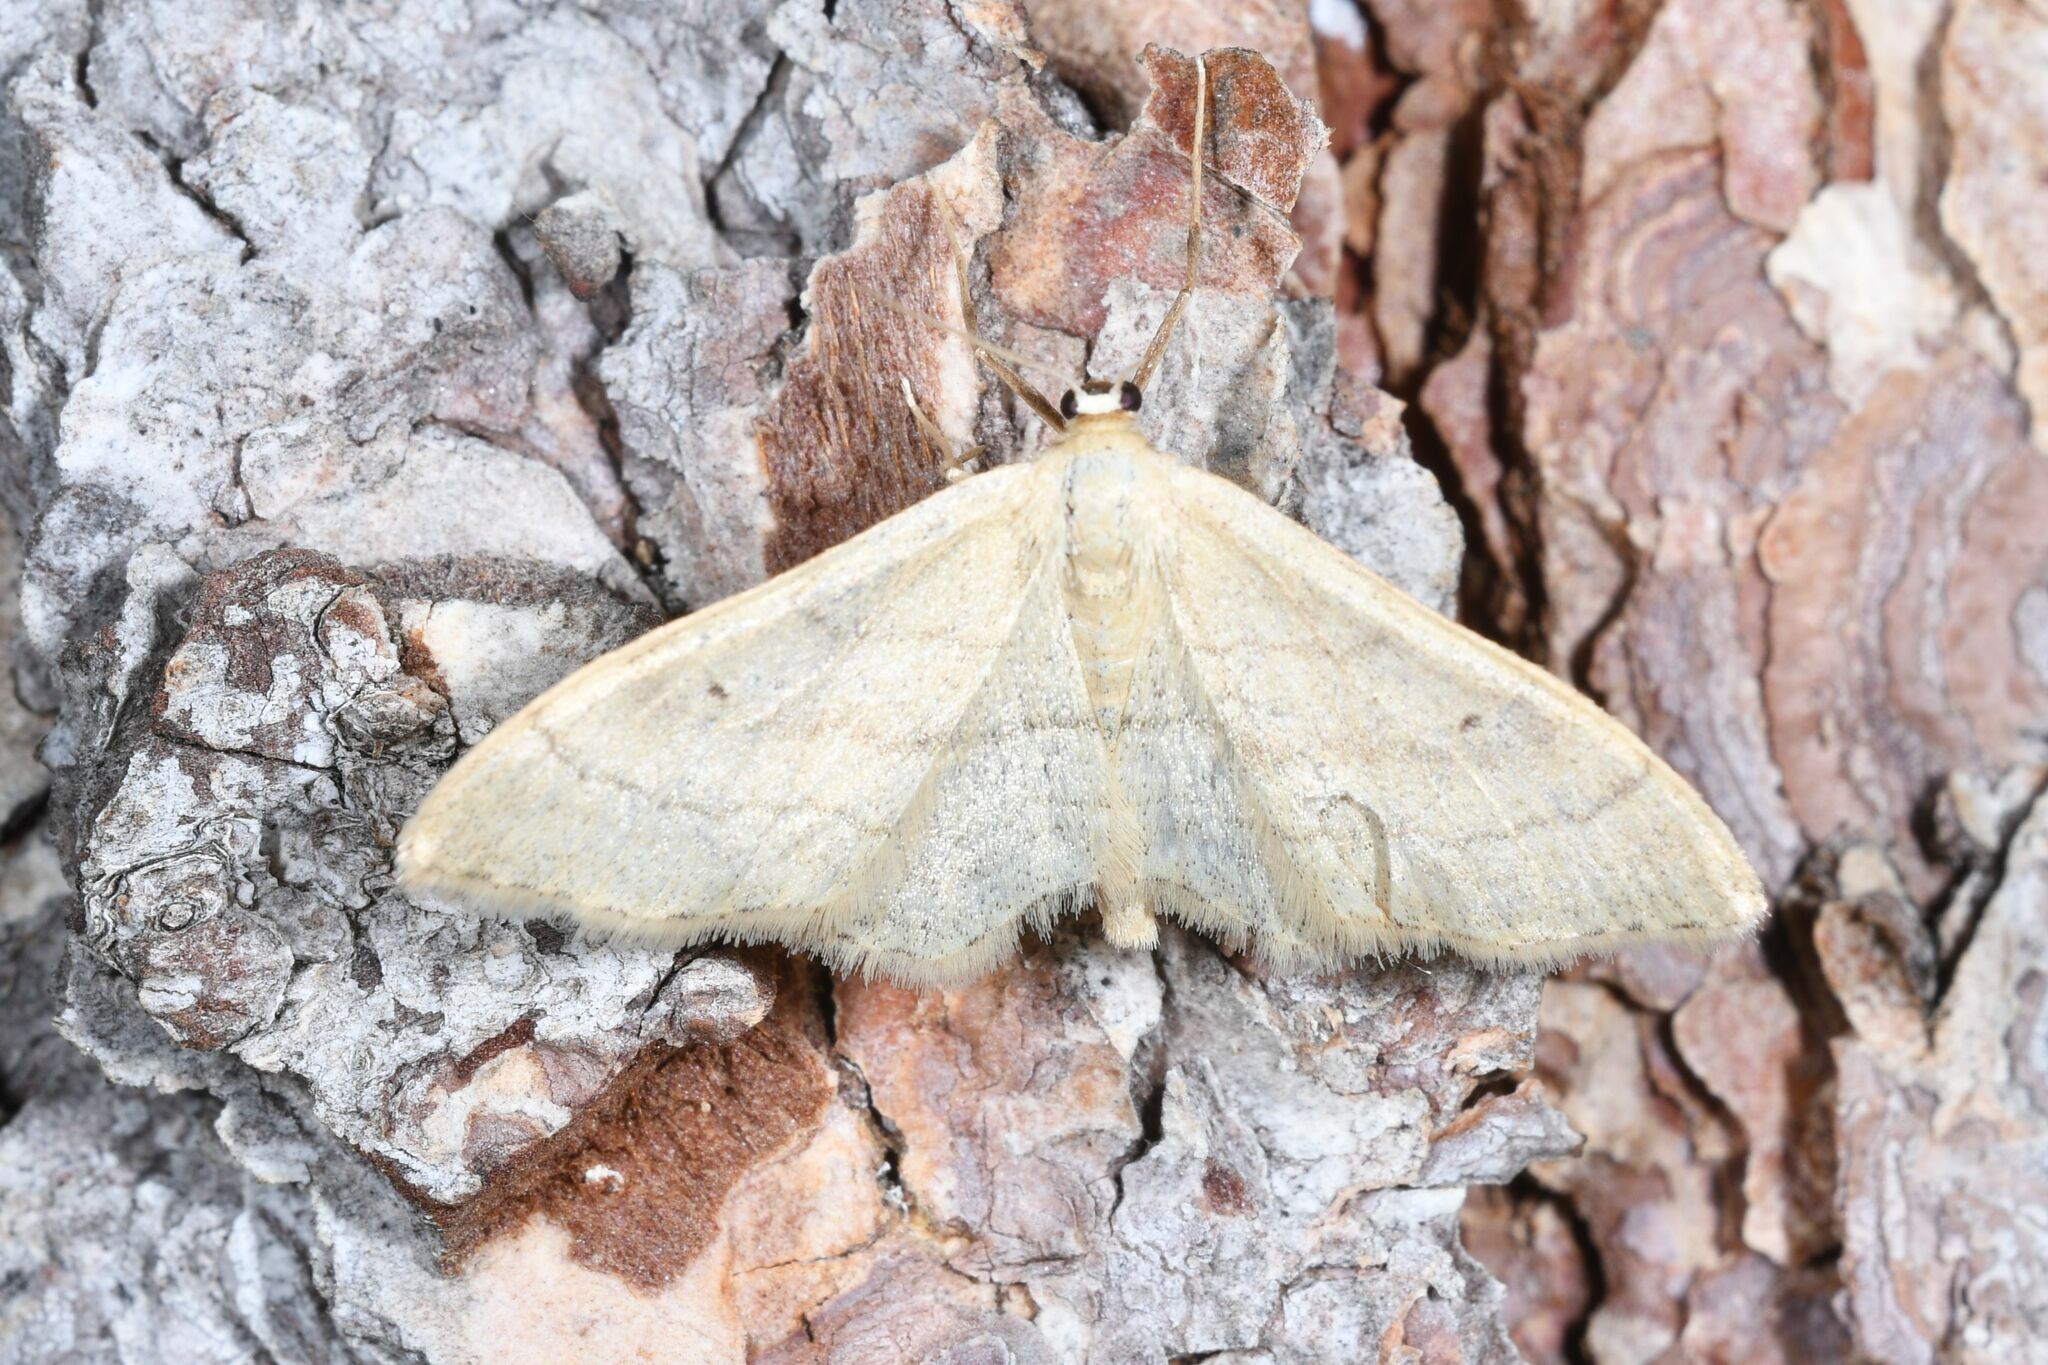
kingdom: Animalia
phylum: Arthropoda
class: Insecta
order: Lepidoptera
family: Geometridae
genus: Idaea
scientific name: Idaea aversata
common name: Riband wave
